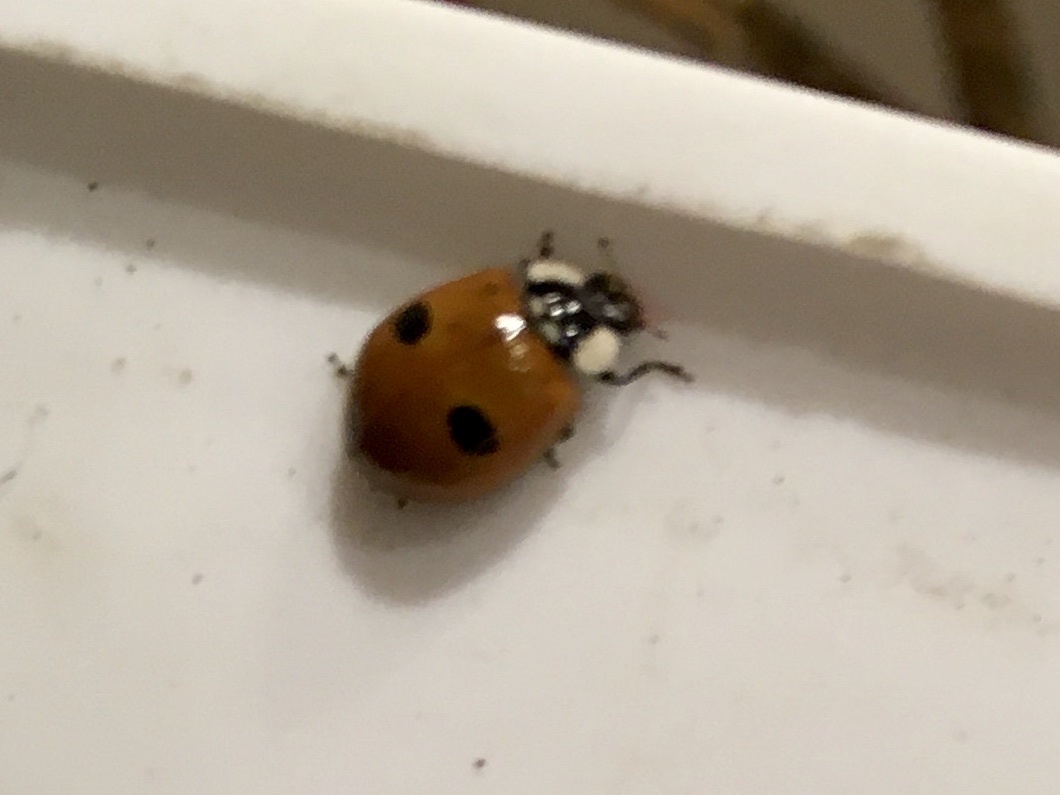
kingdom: Animalia
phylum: Arthropoda
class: Insecta
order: Coleoptera
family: Coccinellidae
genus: Adalia
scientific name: Adalia bipunctata
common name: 2-spot ladybird
